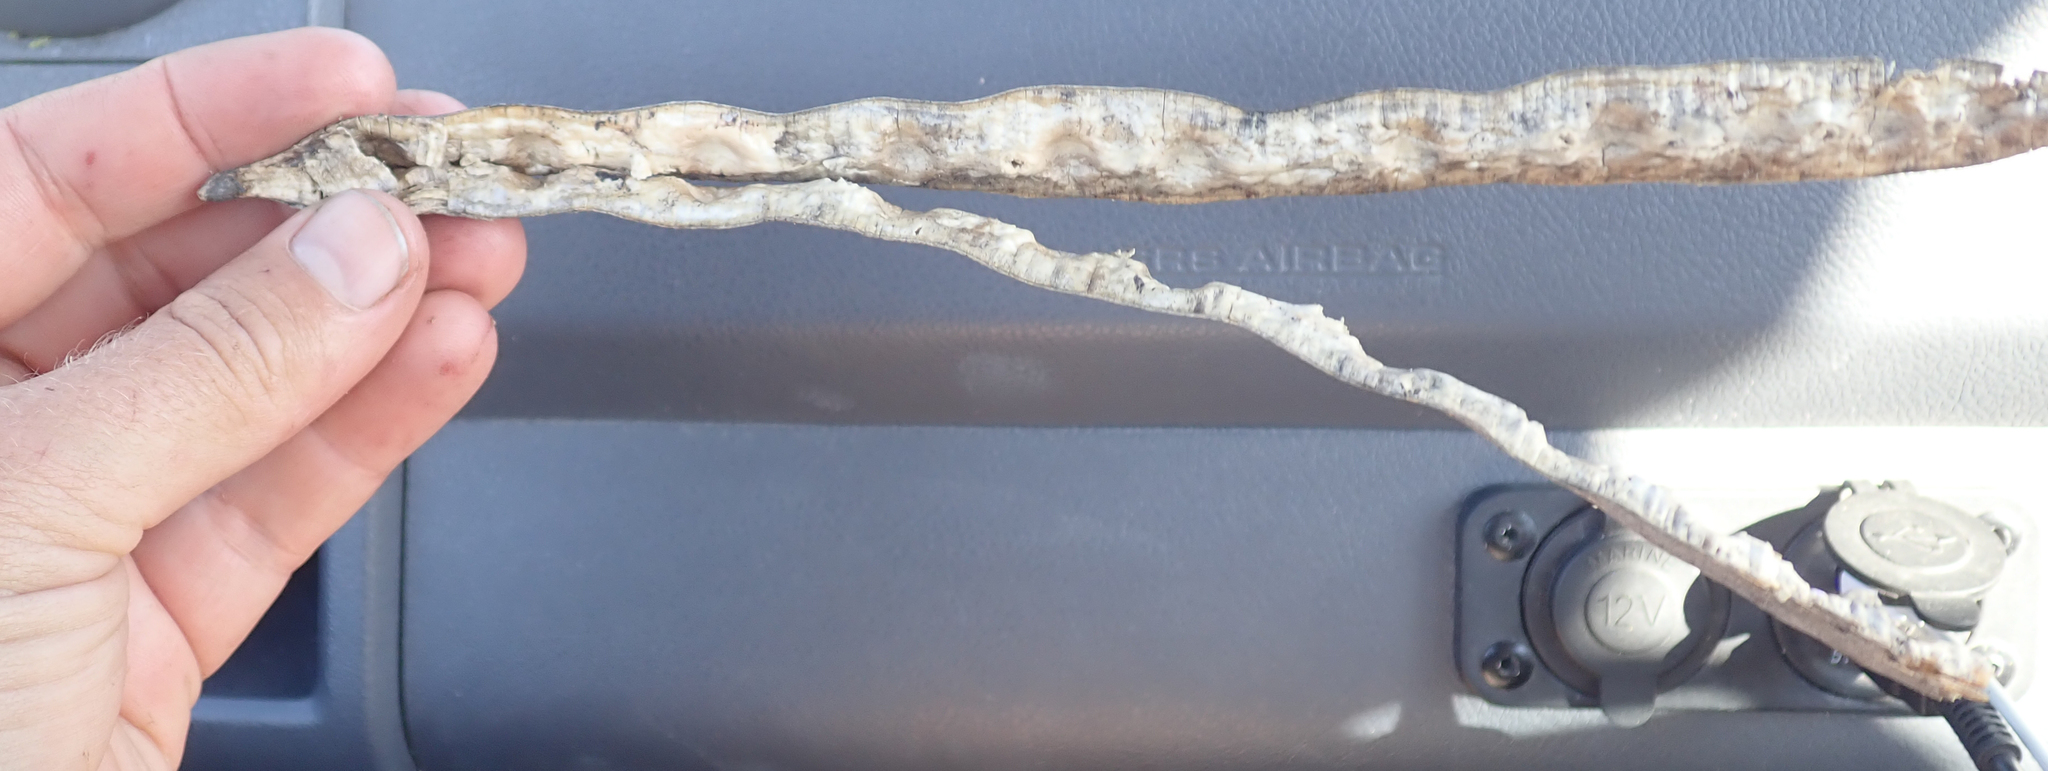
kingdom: Plantae
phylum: Tracheophyta
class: Magnoliopsida
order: Brassicales
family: Moringaceae
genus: Moringa
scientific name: Moringa oleifera
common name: Horseradish-tree
